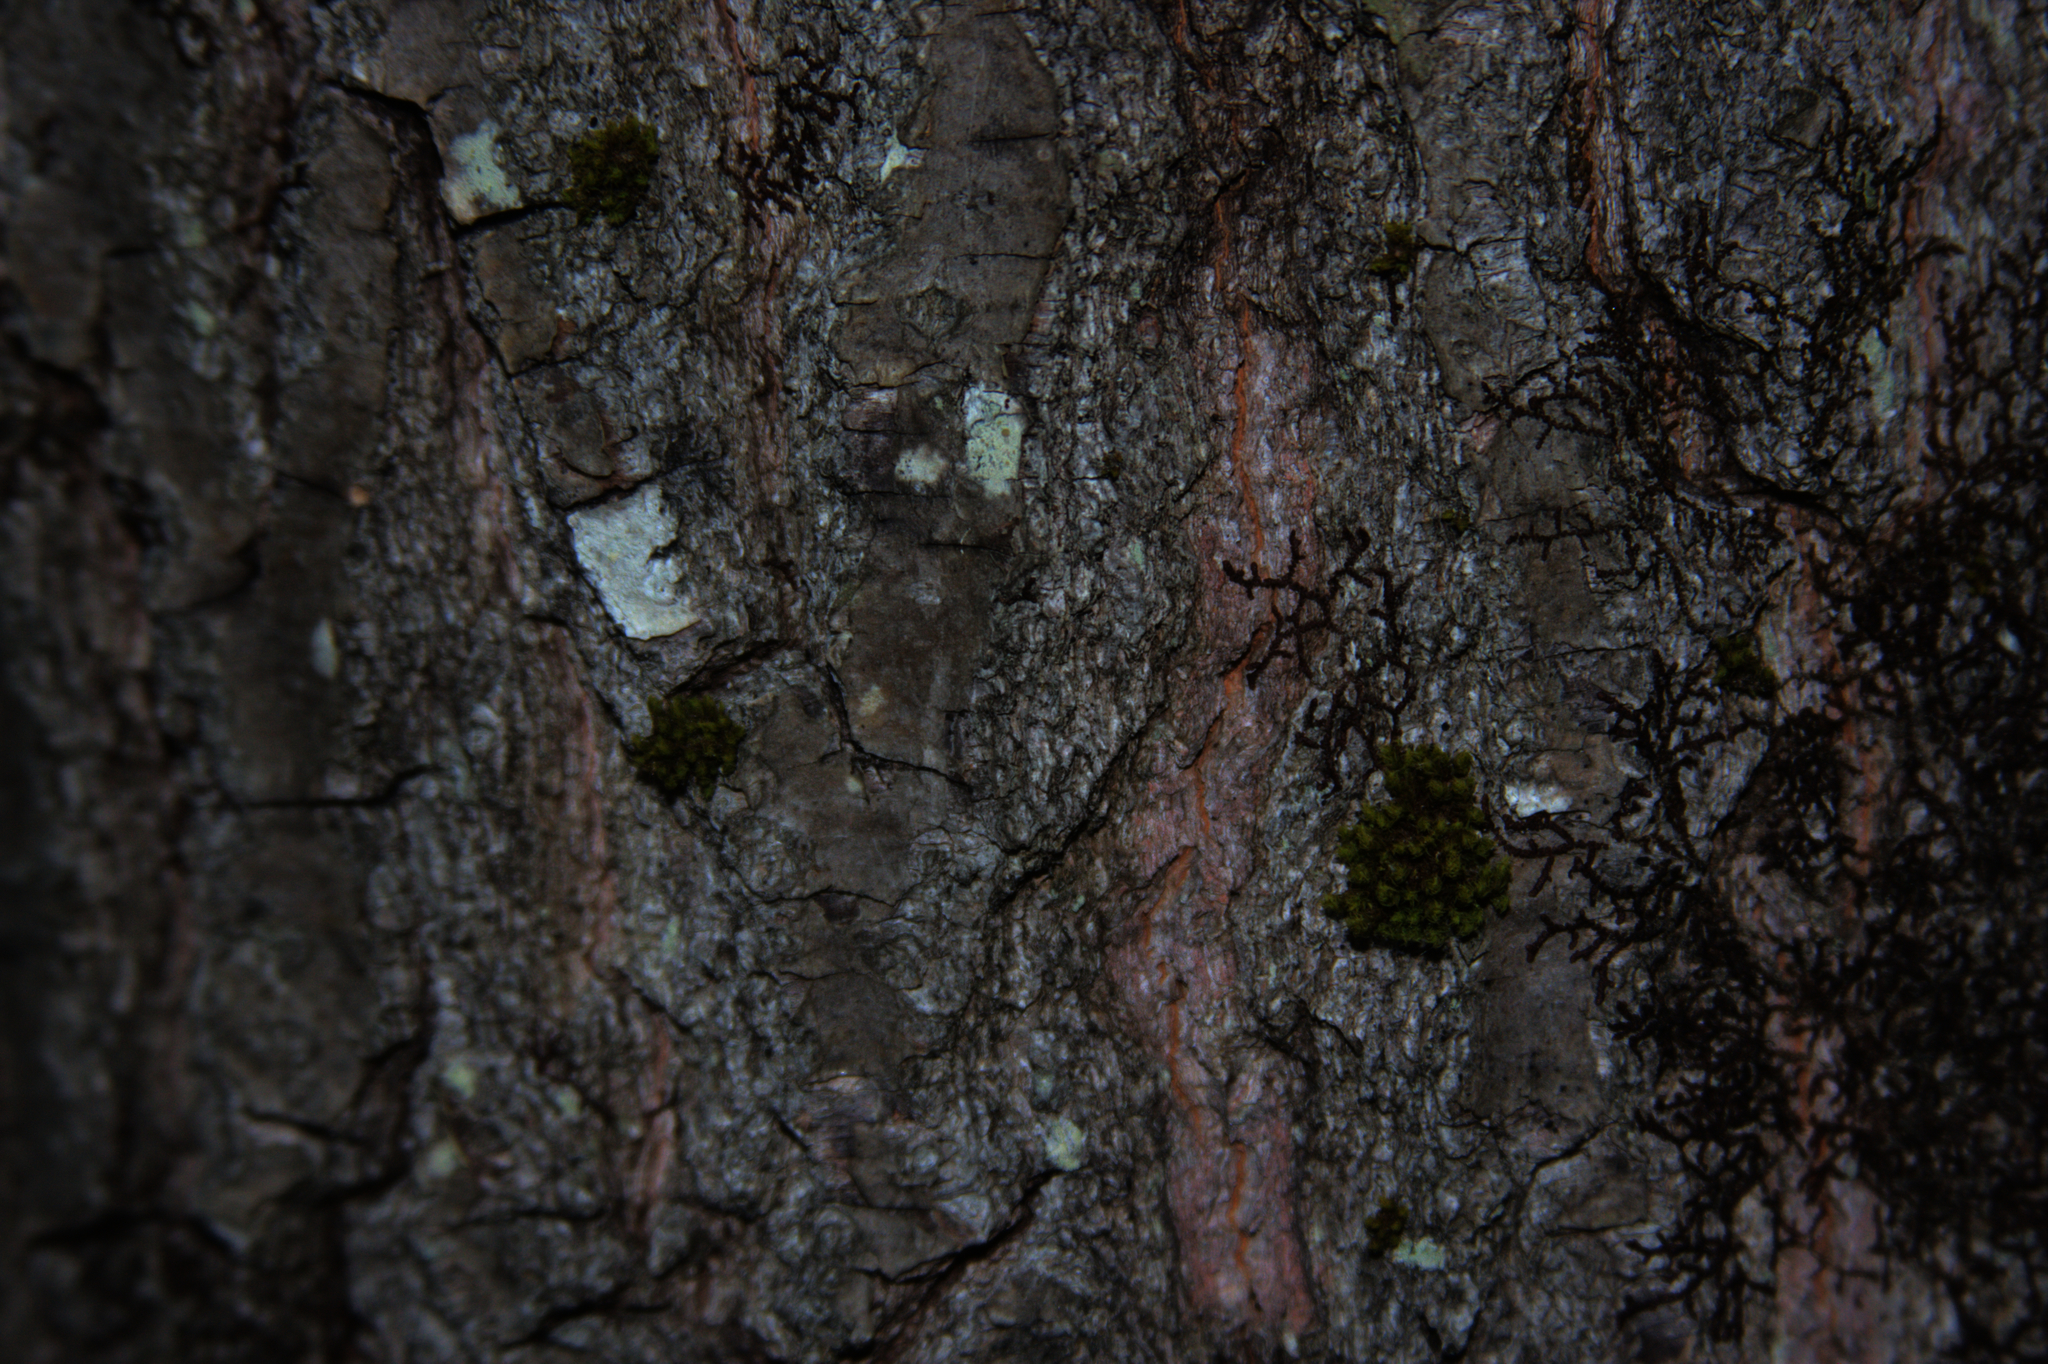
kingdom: Plantae
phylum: Bryophyta
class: Bryopsida
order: Orthotrichales
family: Orthotrichaceae
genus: Ulota
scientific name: Ulota crispa
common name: Crisped pincushion moss
